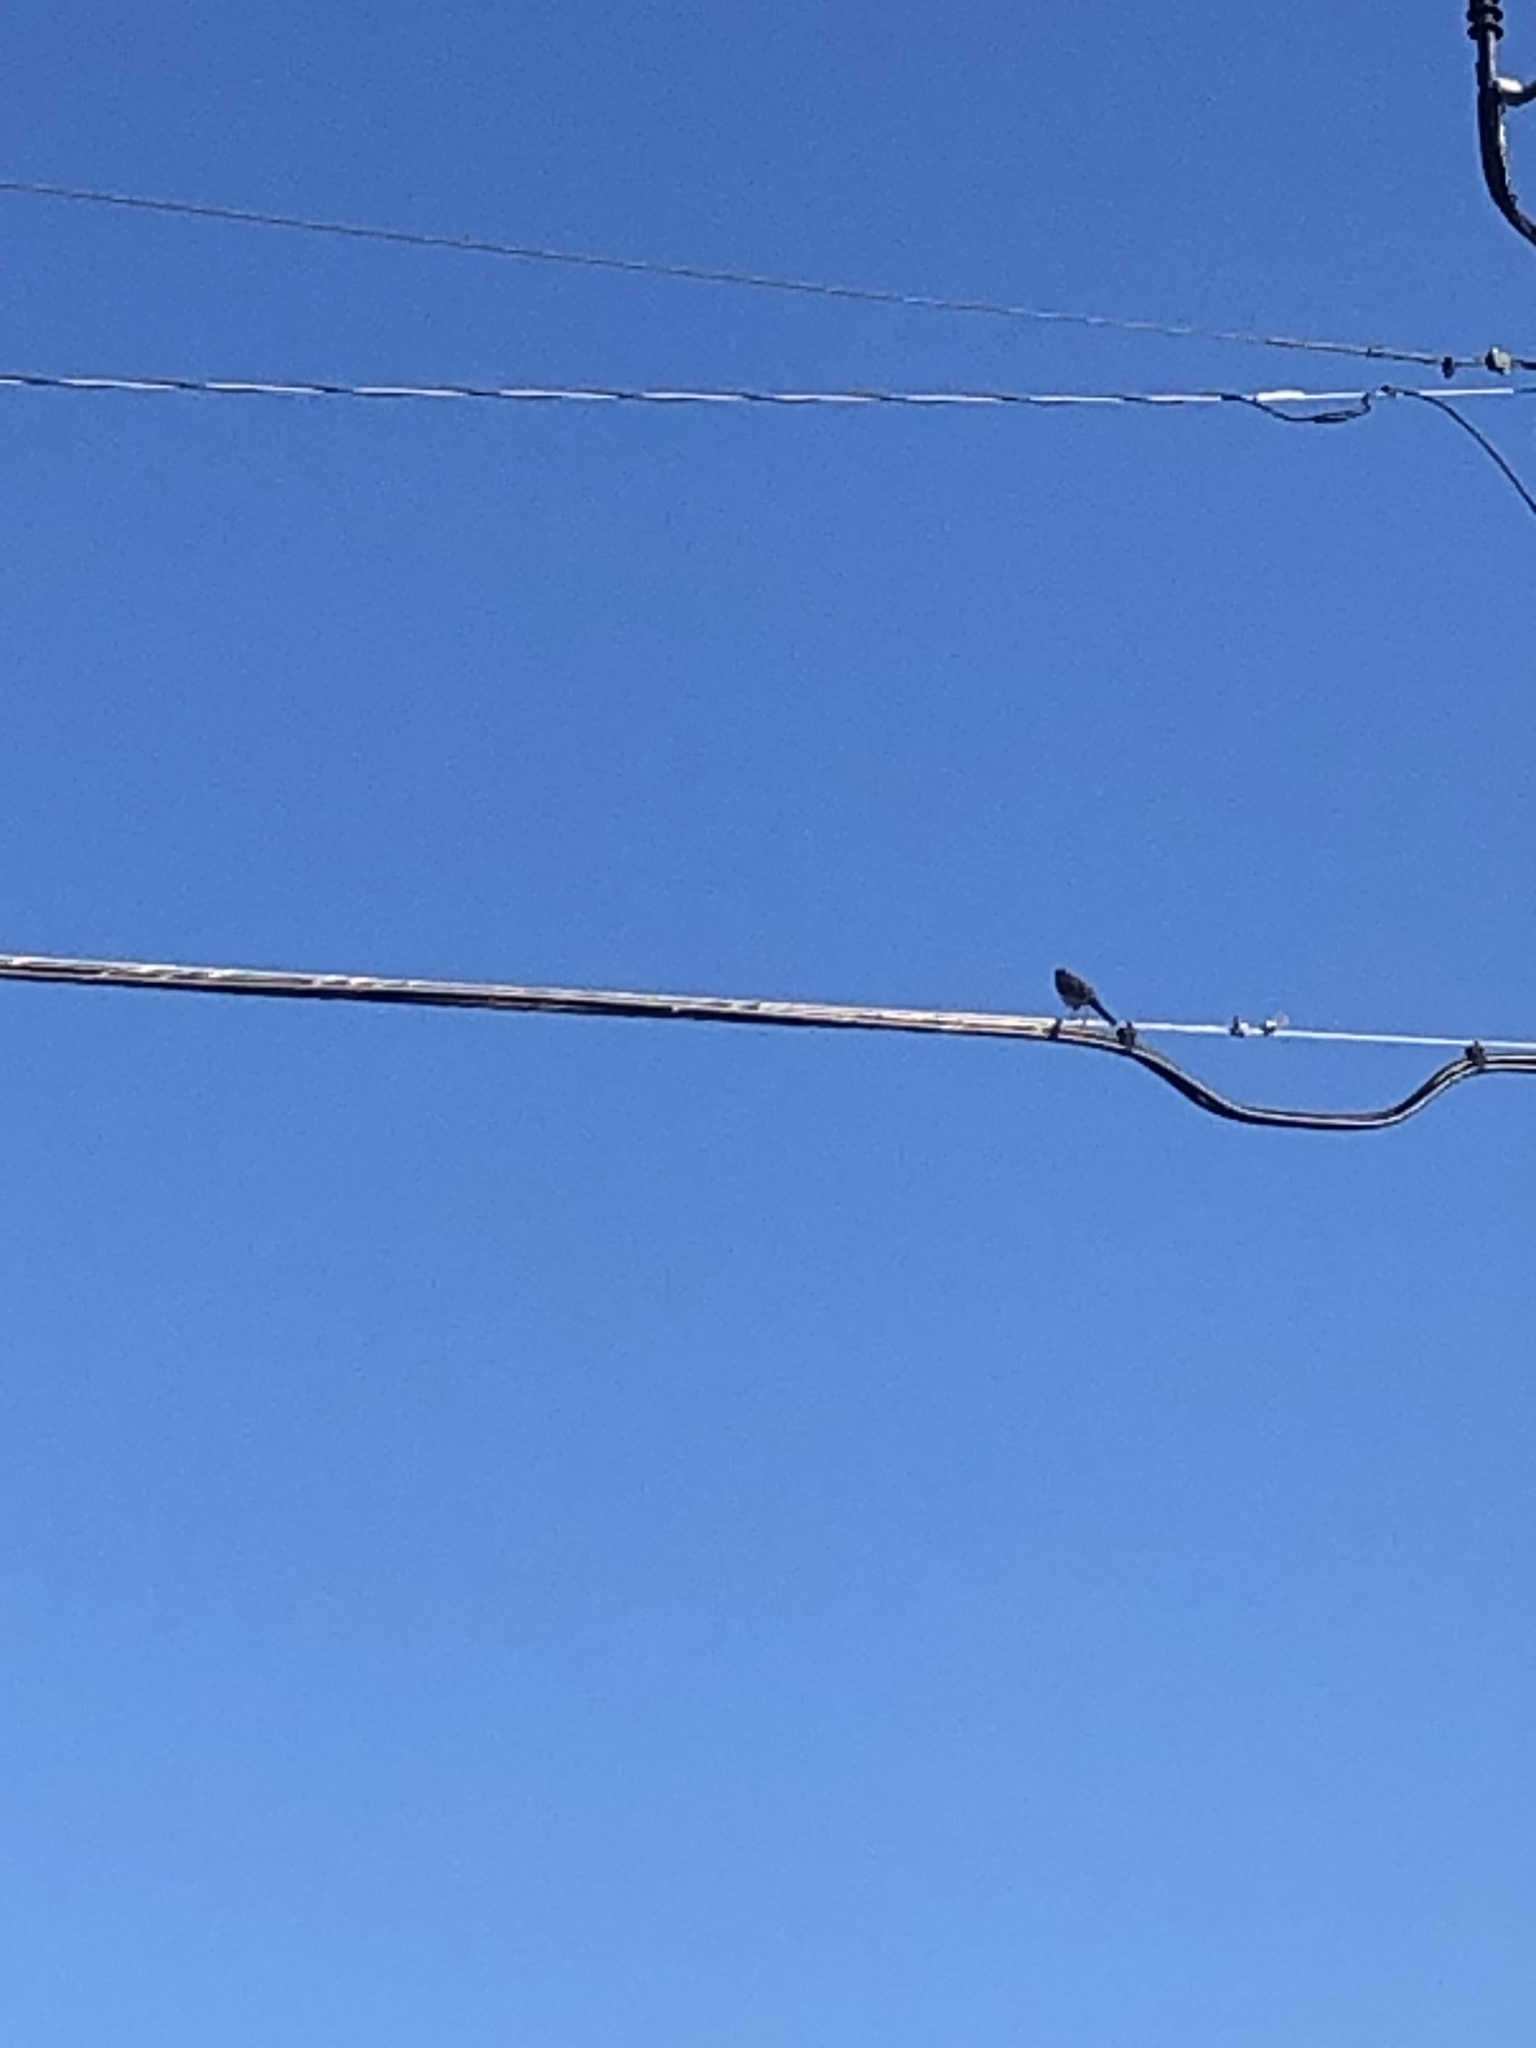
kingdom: Animalia
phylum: Chordata
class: Aves
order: Passeriformes
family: Mimidae
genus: Mimus
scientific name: Mimus polyglottos
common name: Northern mockingbird
